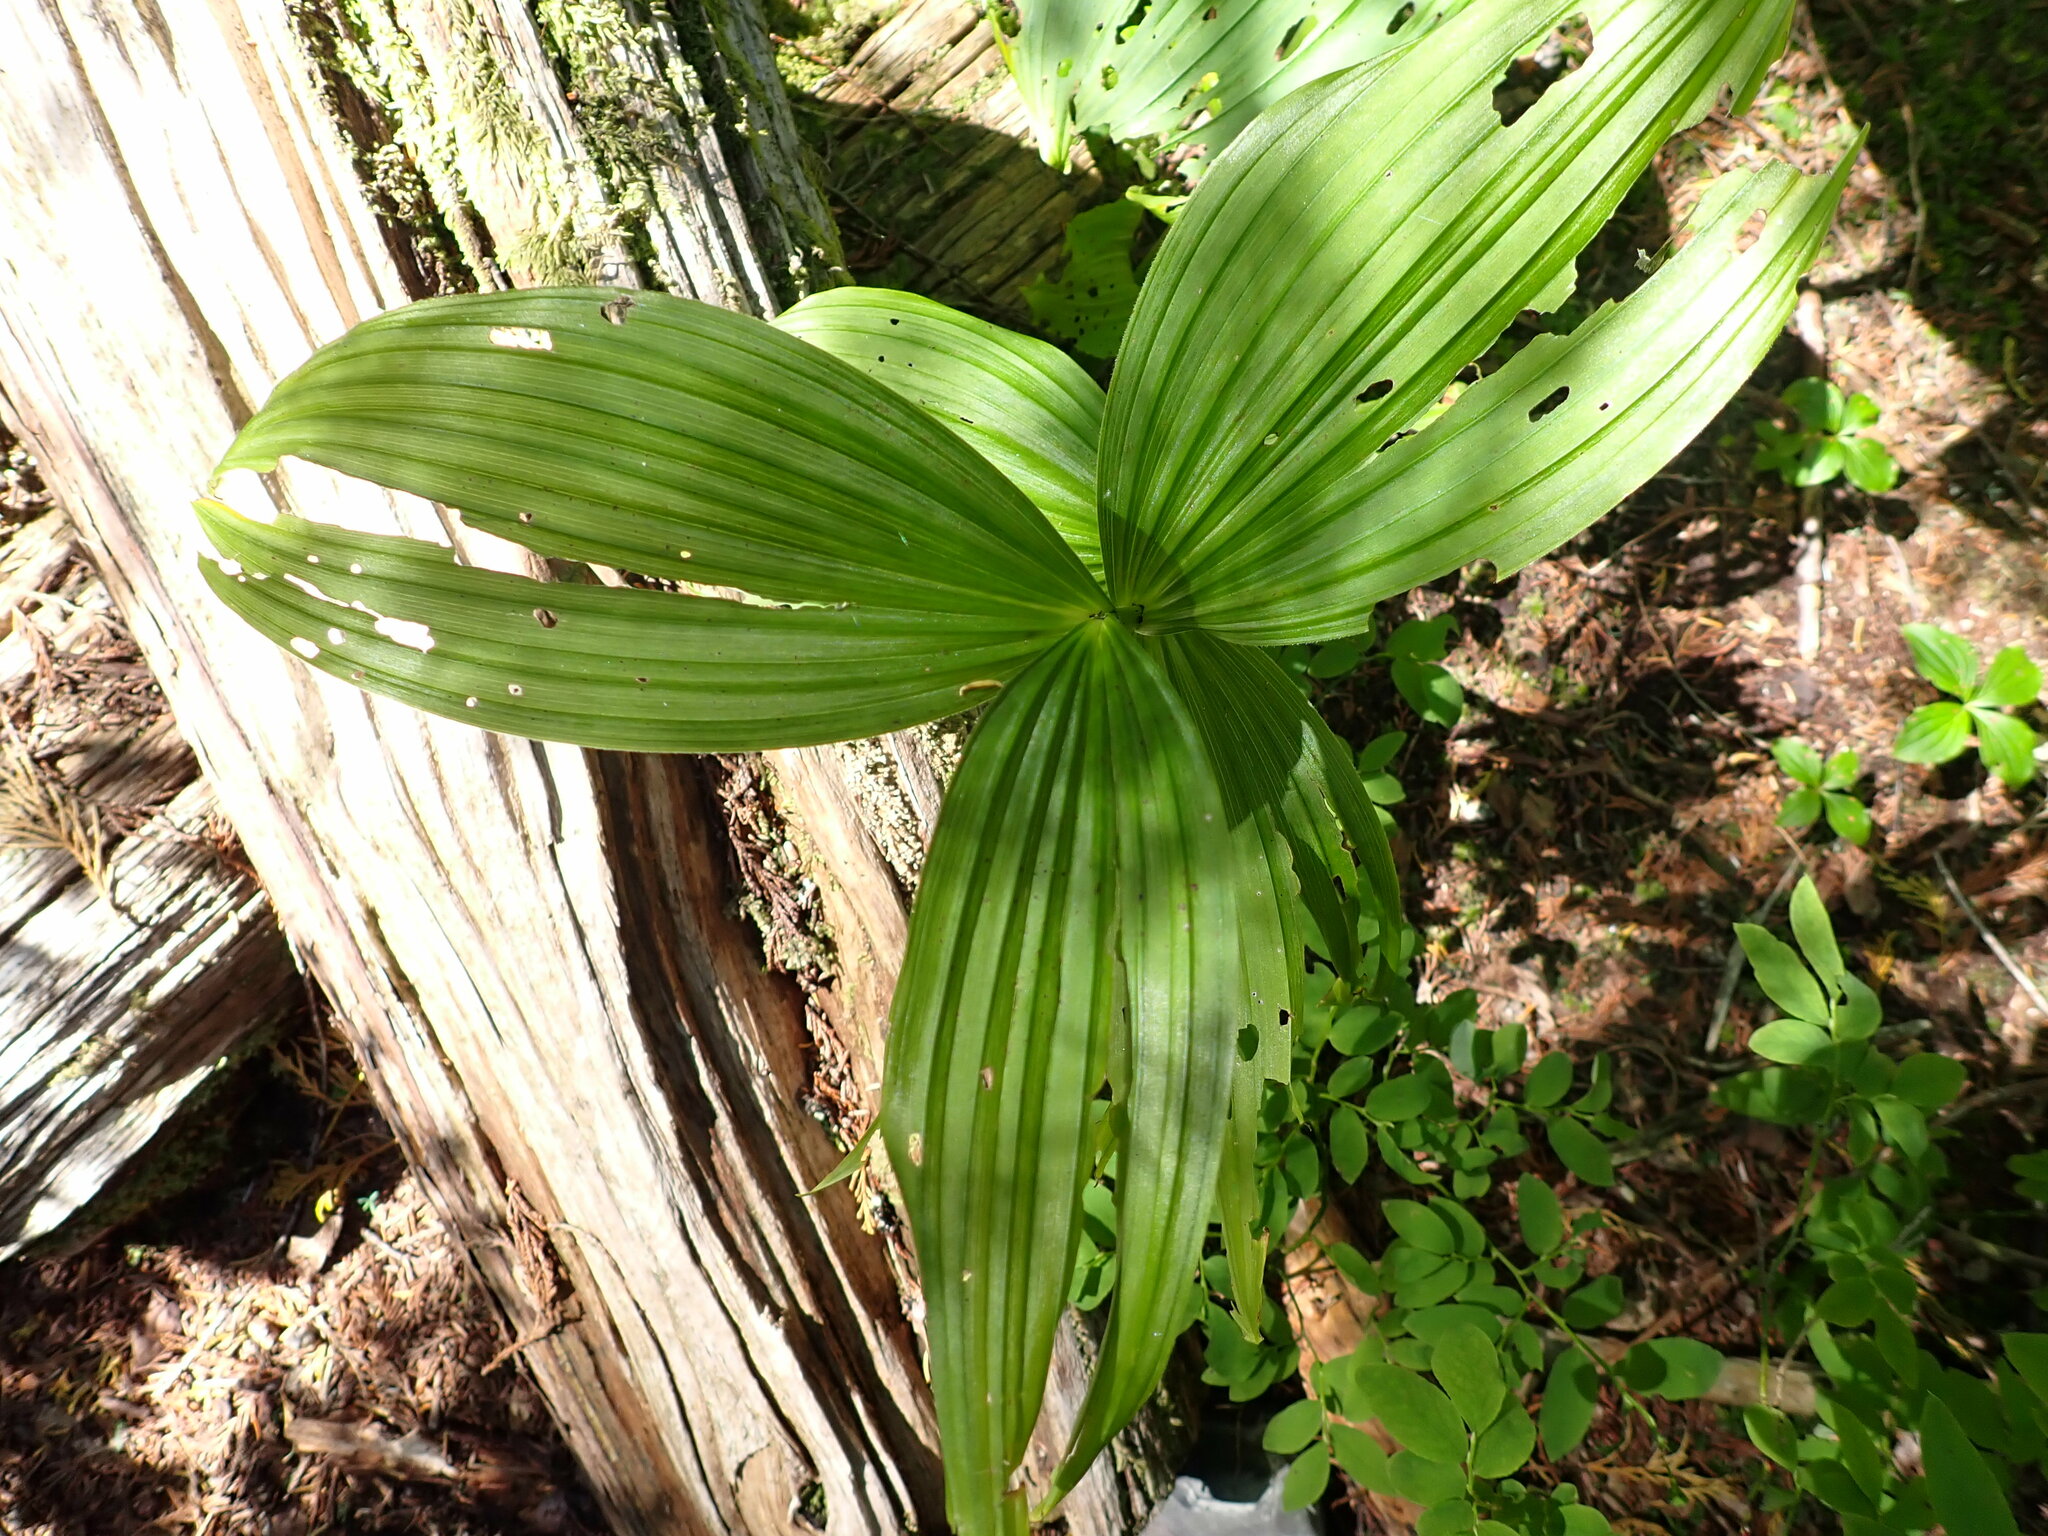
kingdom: Plantae
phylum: Tracheophyta
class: Liliopsida
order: Liliales
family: Melanthiaceae
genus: Veratrum
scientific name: Veratrum viride
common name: American false hellebore
